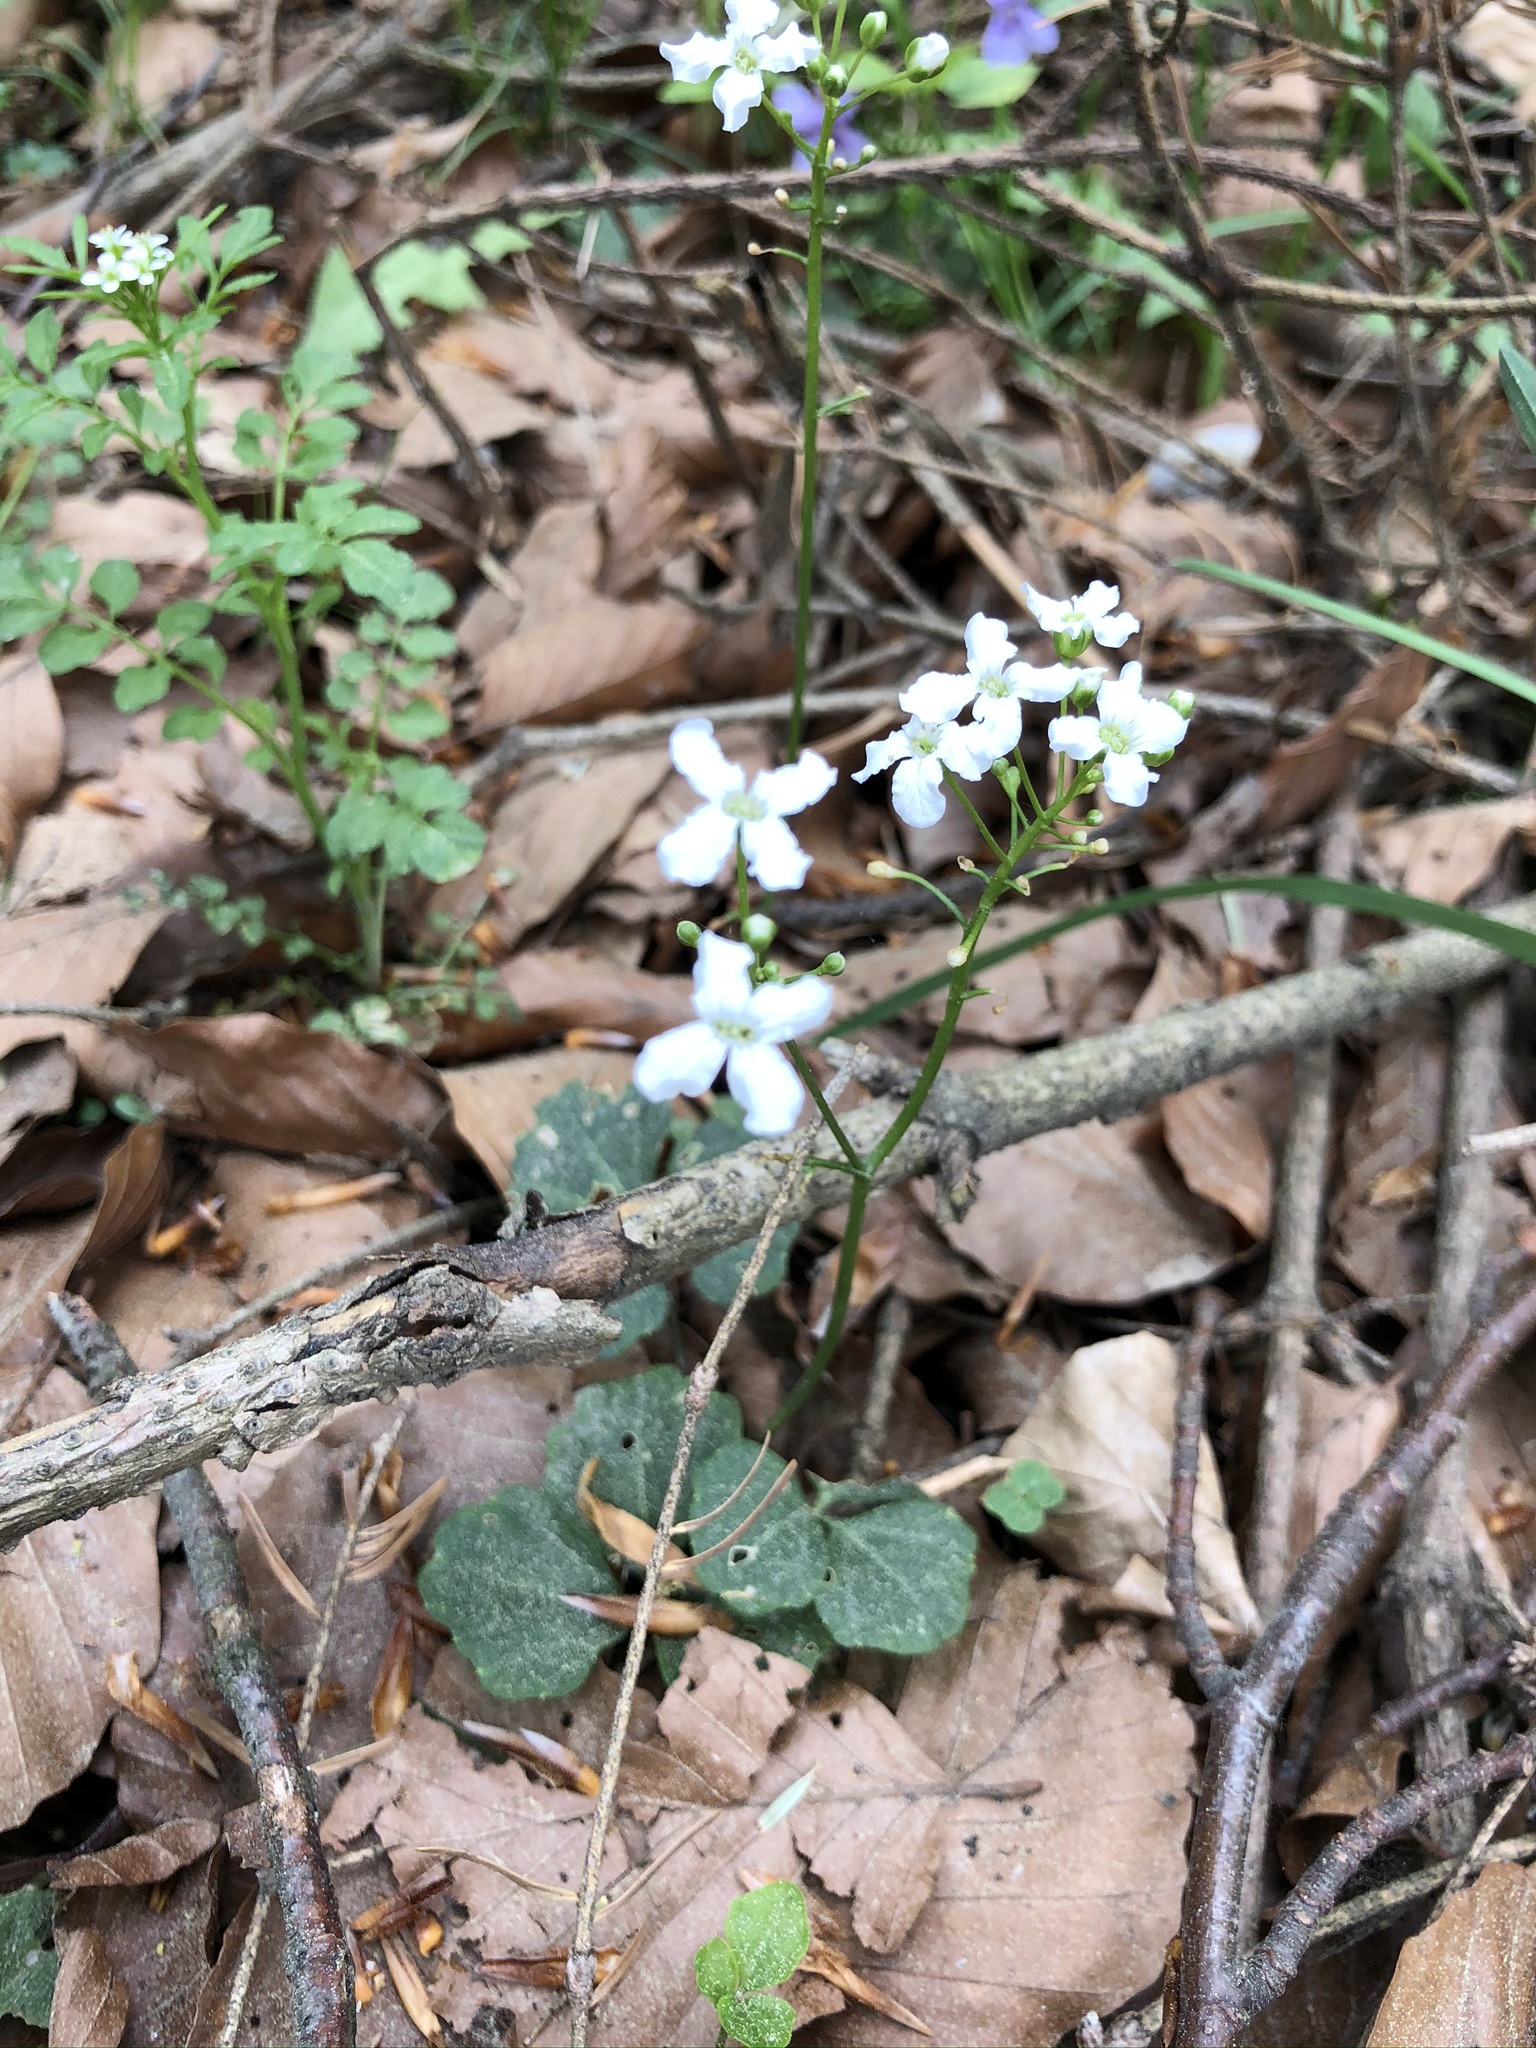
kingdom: Plantae
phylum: Tracheophyta
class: Magnoliopsida
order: Brassicales
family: Brassicaceae
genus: Cardamine
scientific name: Cardamine trifolia
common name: Trefoil cress
